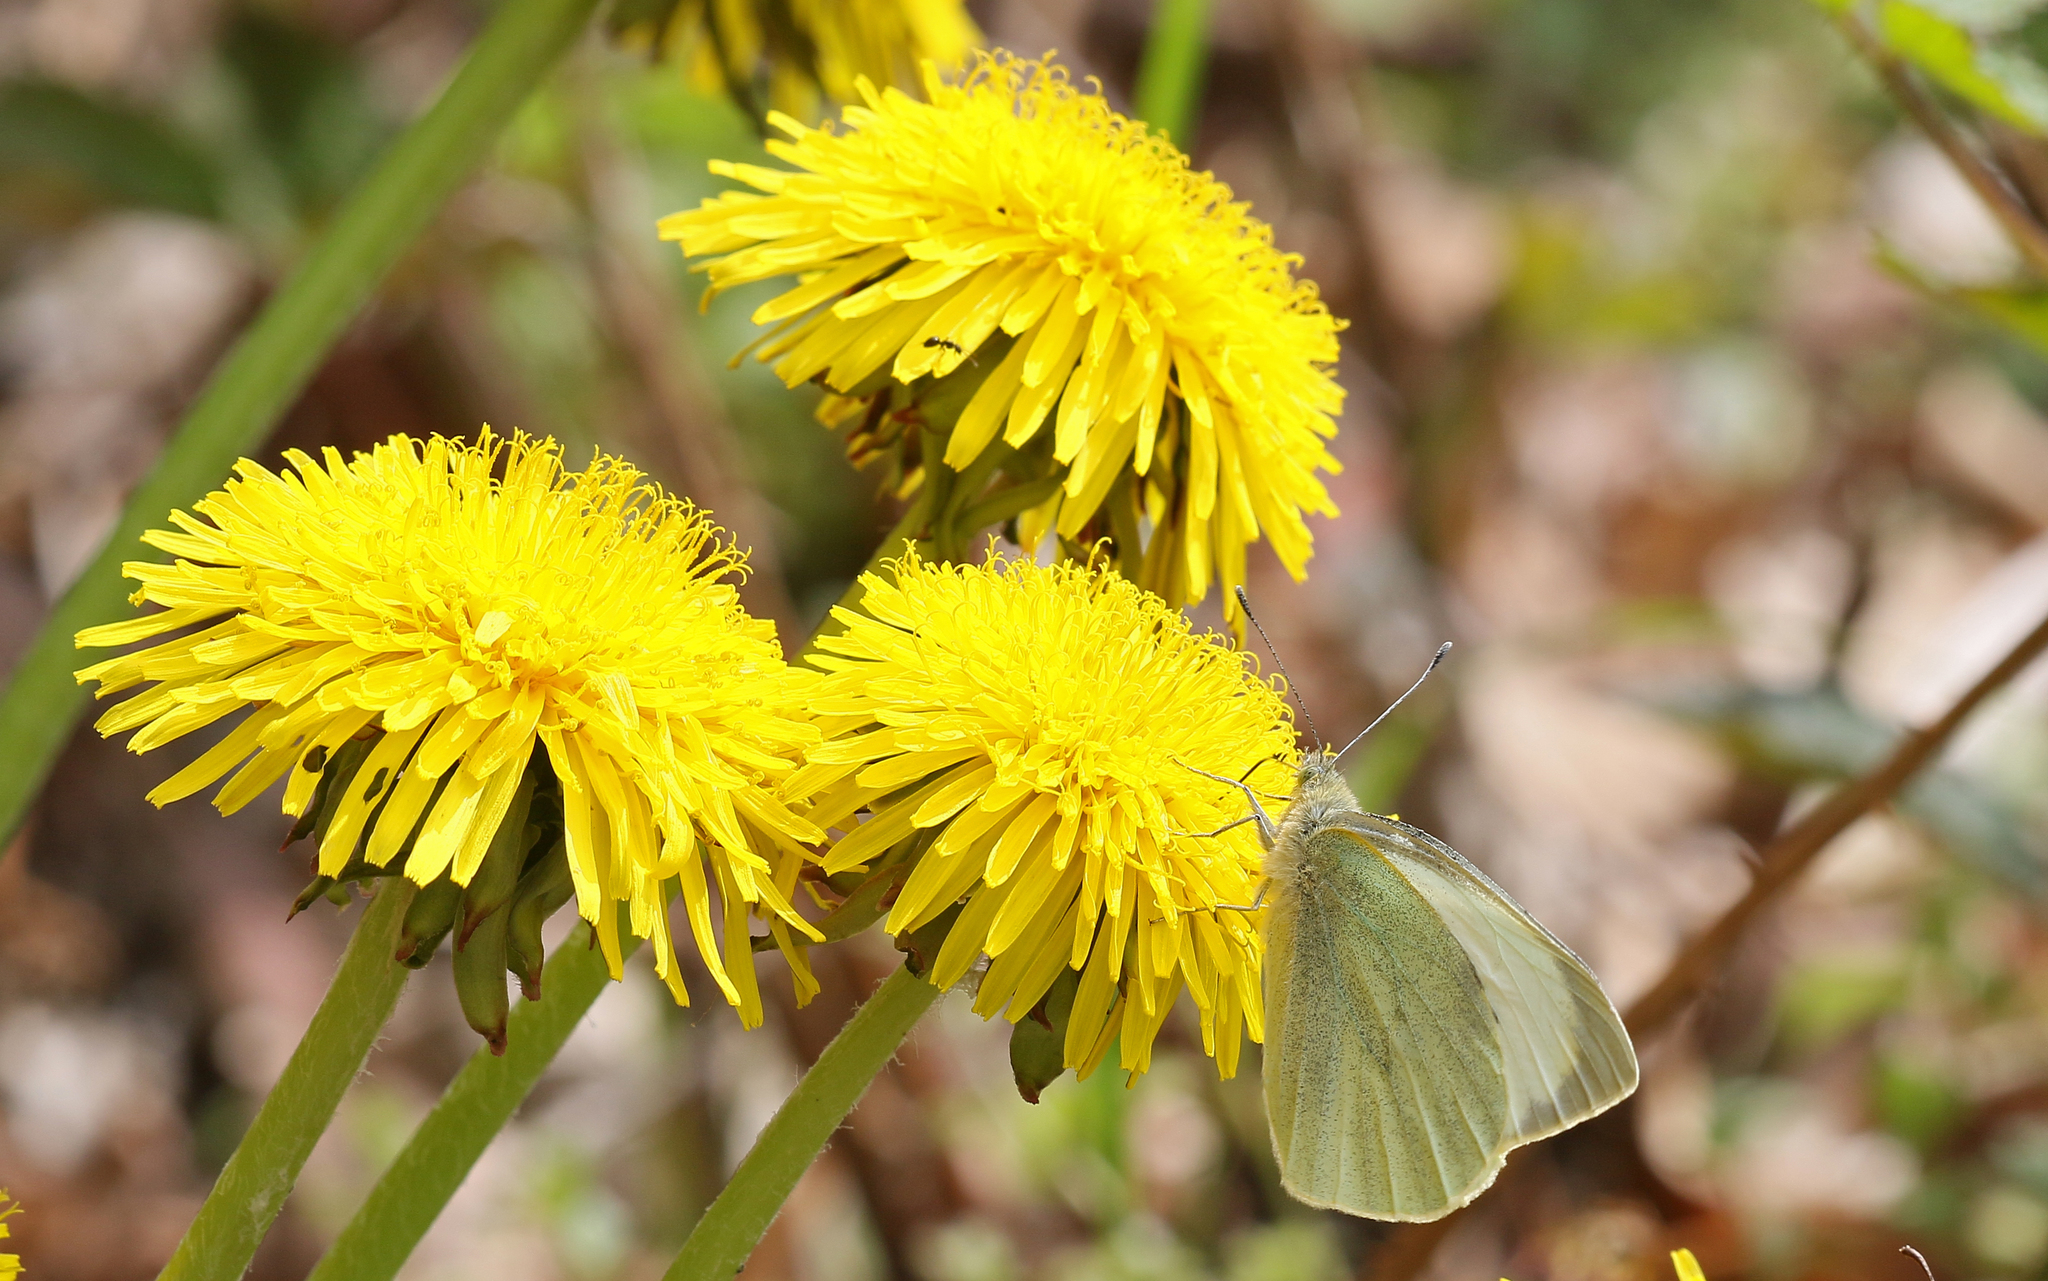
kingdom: Animalia
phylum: Arthropoda
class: Insecta
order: Lepidoptera
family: Pieridae
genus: Pieris
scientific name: Pieris brassicae
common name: Large white
